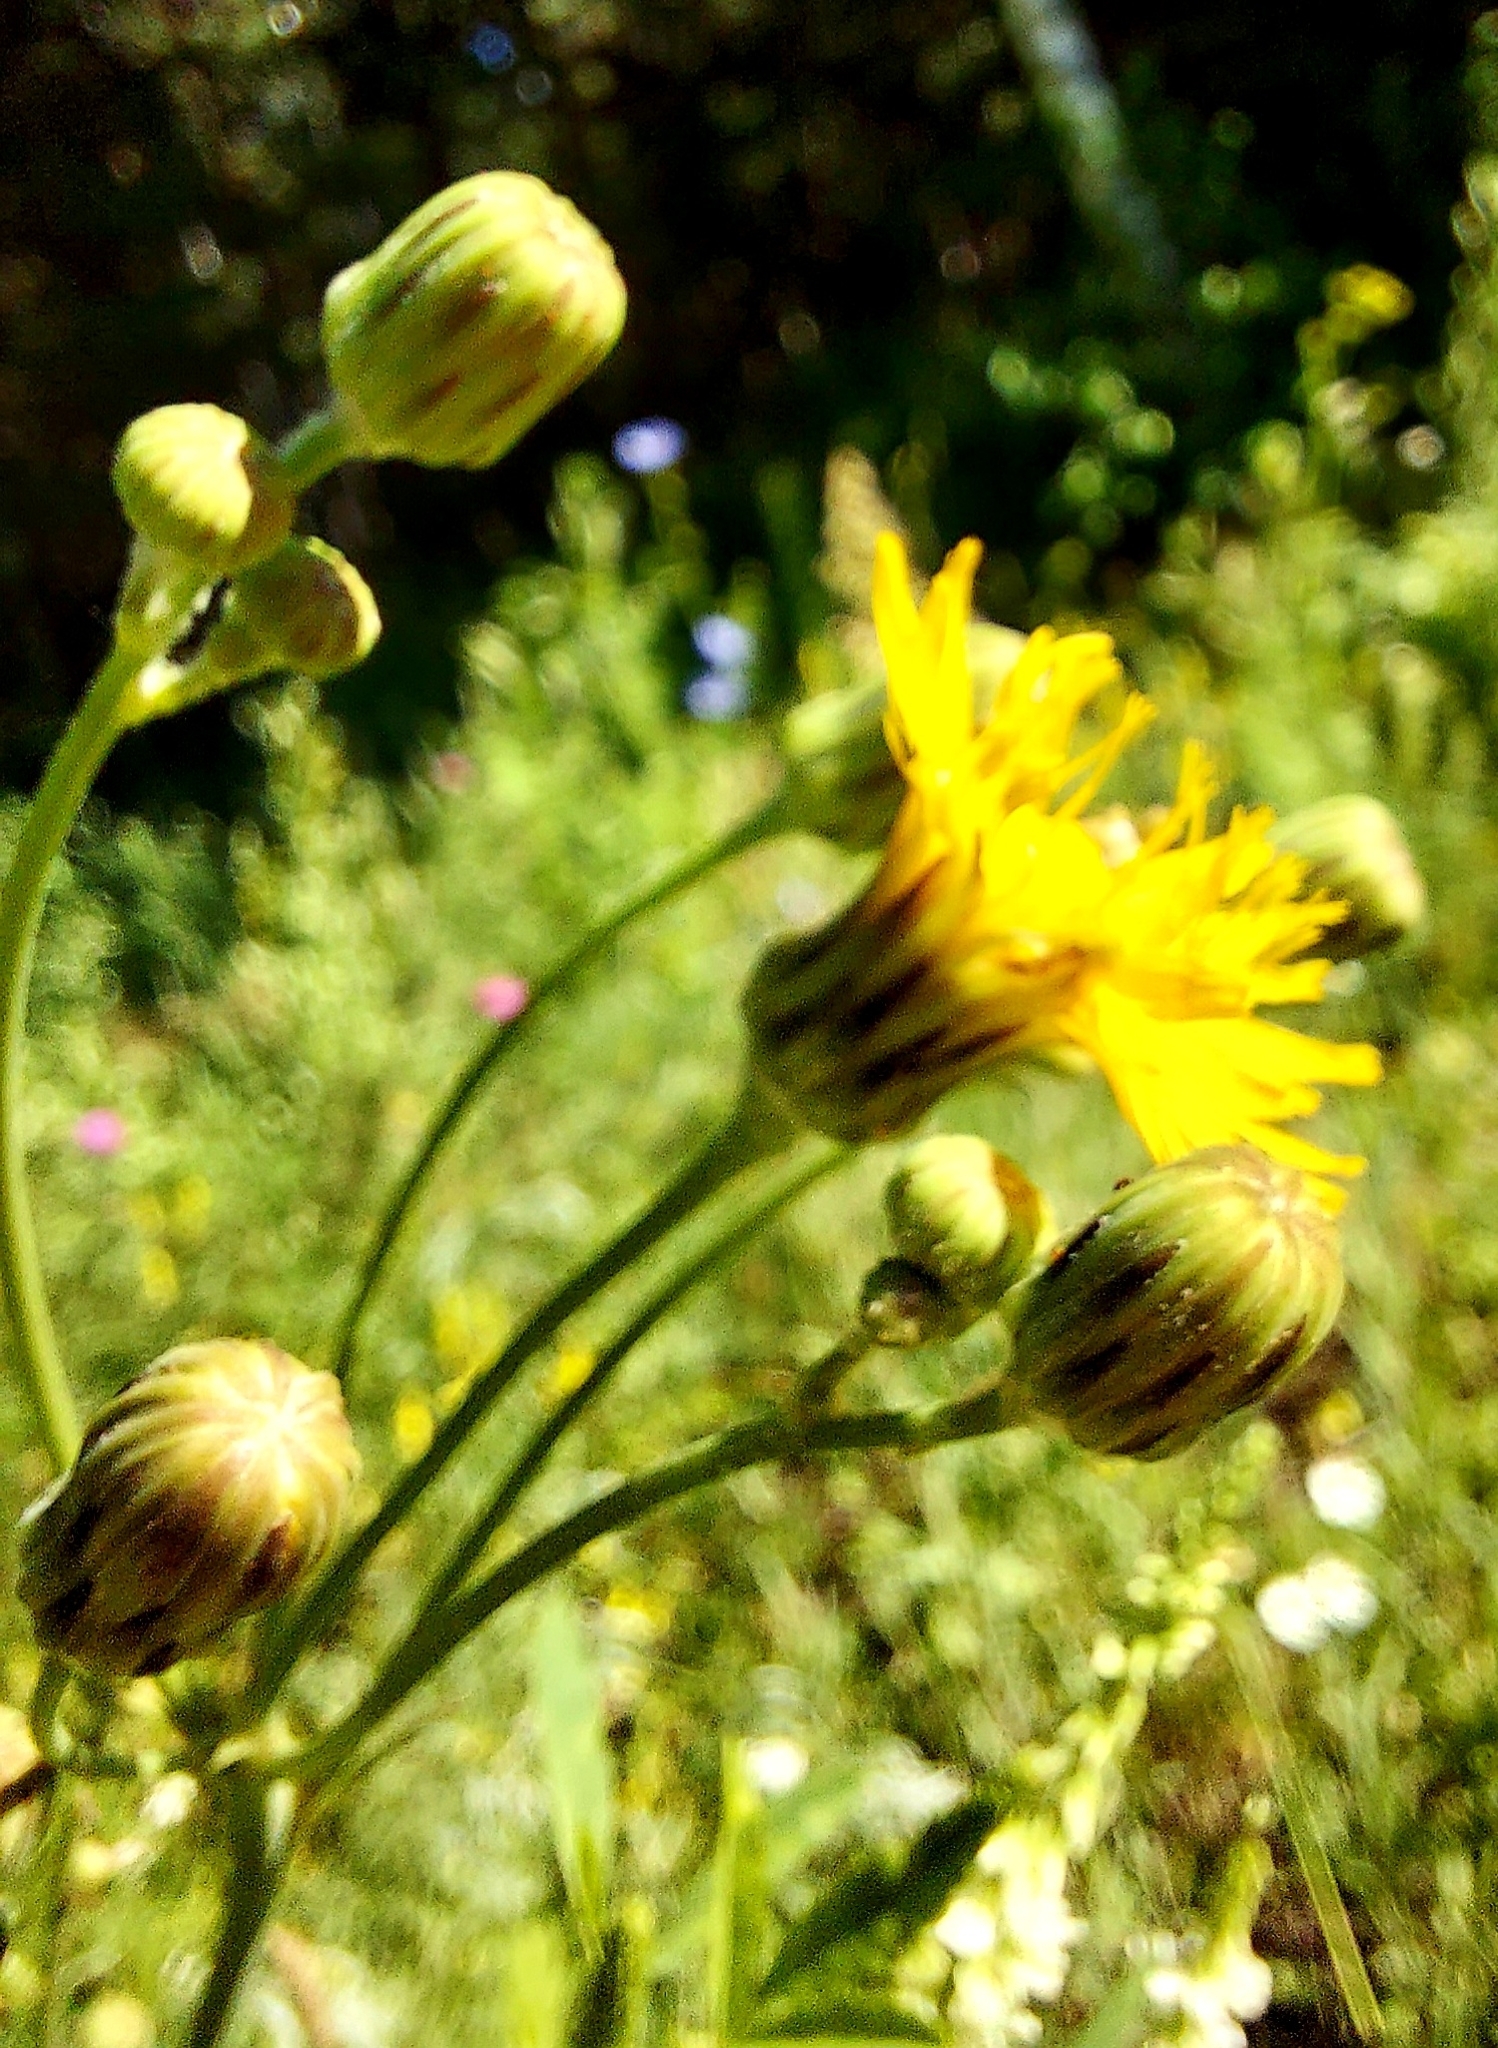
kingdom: Plantae
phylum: Tracheophyta
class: Magnoliopsida
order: Asterales
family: Asteraceae
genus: Sonchus
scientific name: Sonchus arvensis
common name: Perennial sow-thistle
